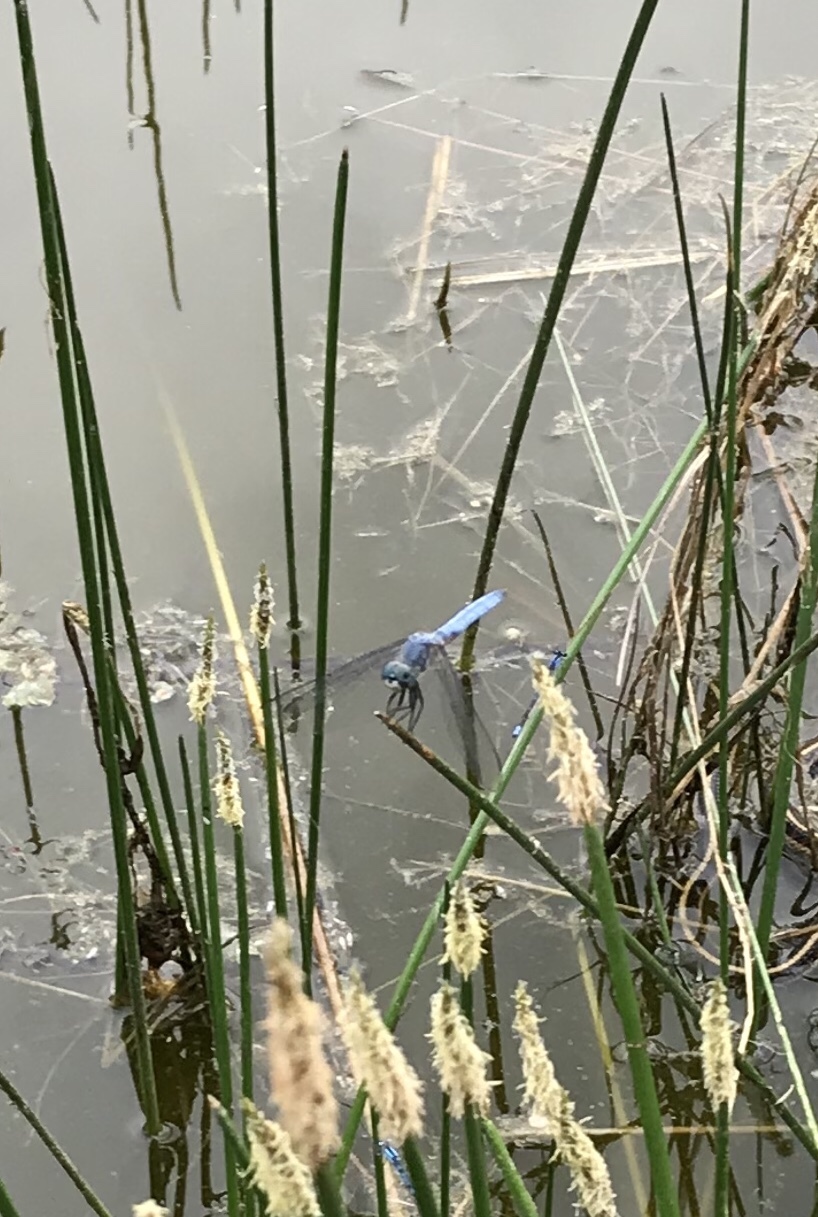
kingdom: Animalia
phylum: Arthropoda
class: Insecta
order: Odonata
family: Libellulidae
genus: Pachydiplax
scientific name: Pachydiplax longipennis
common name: Blue dasher
